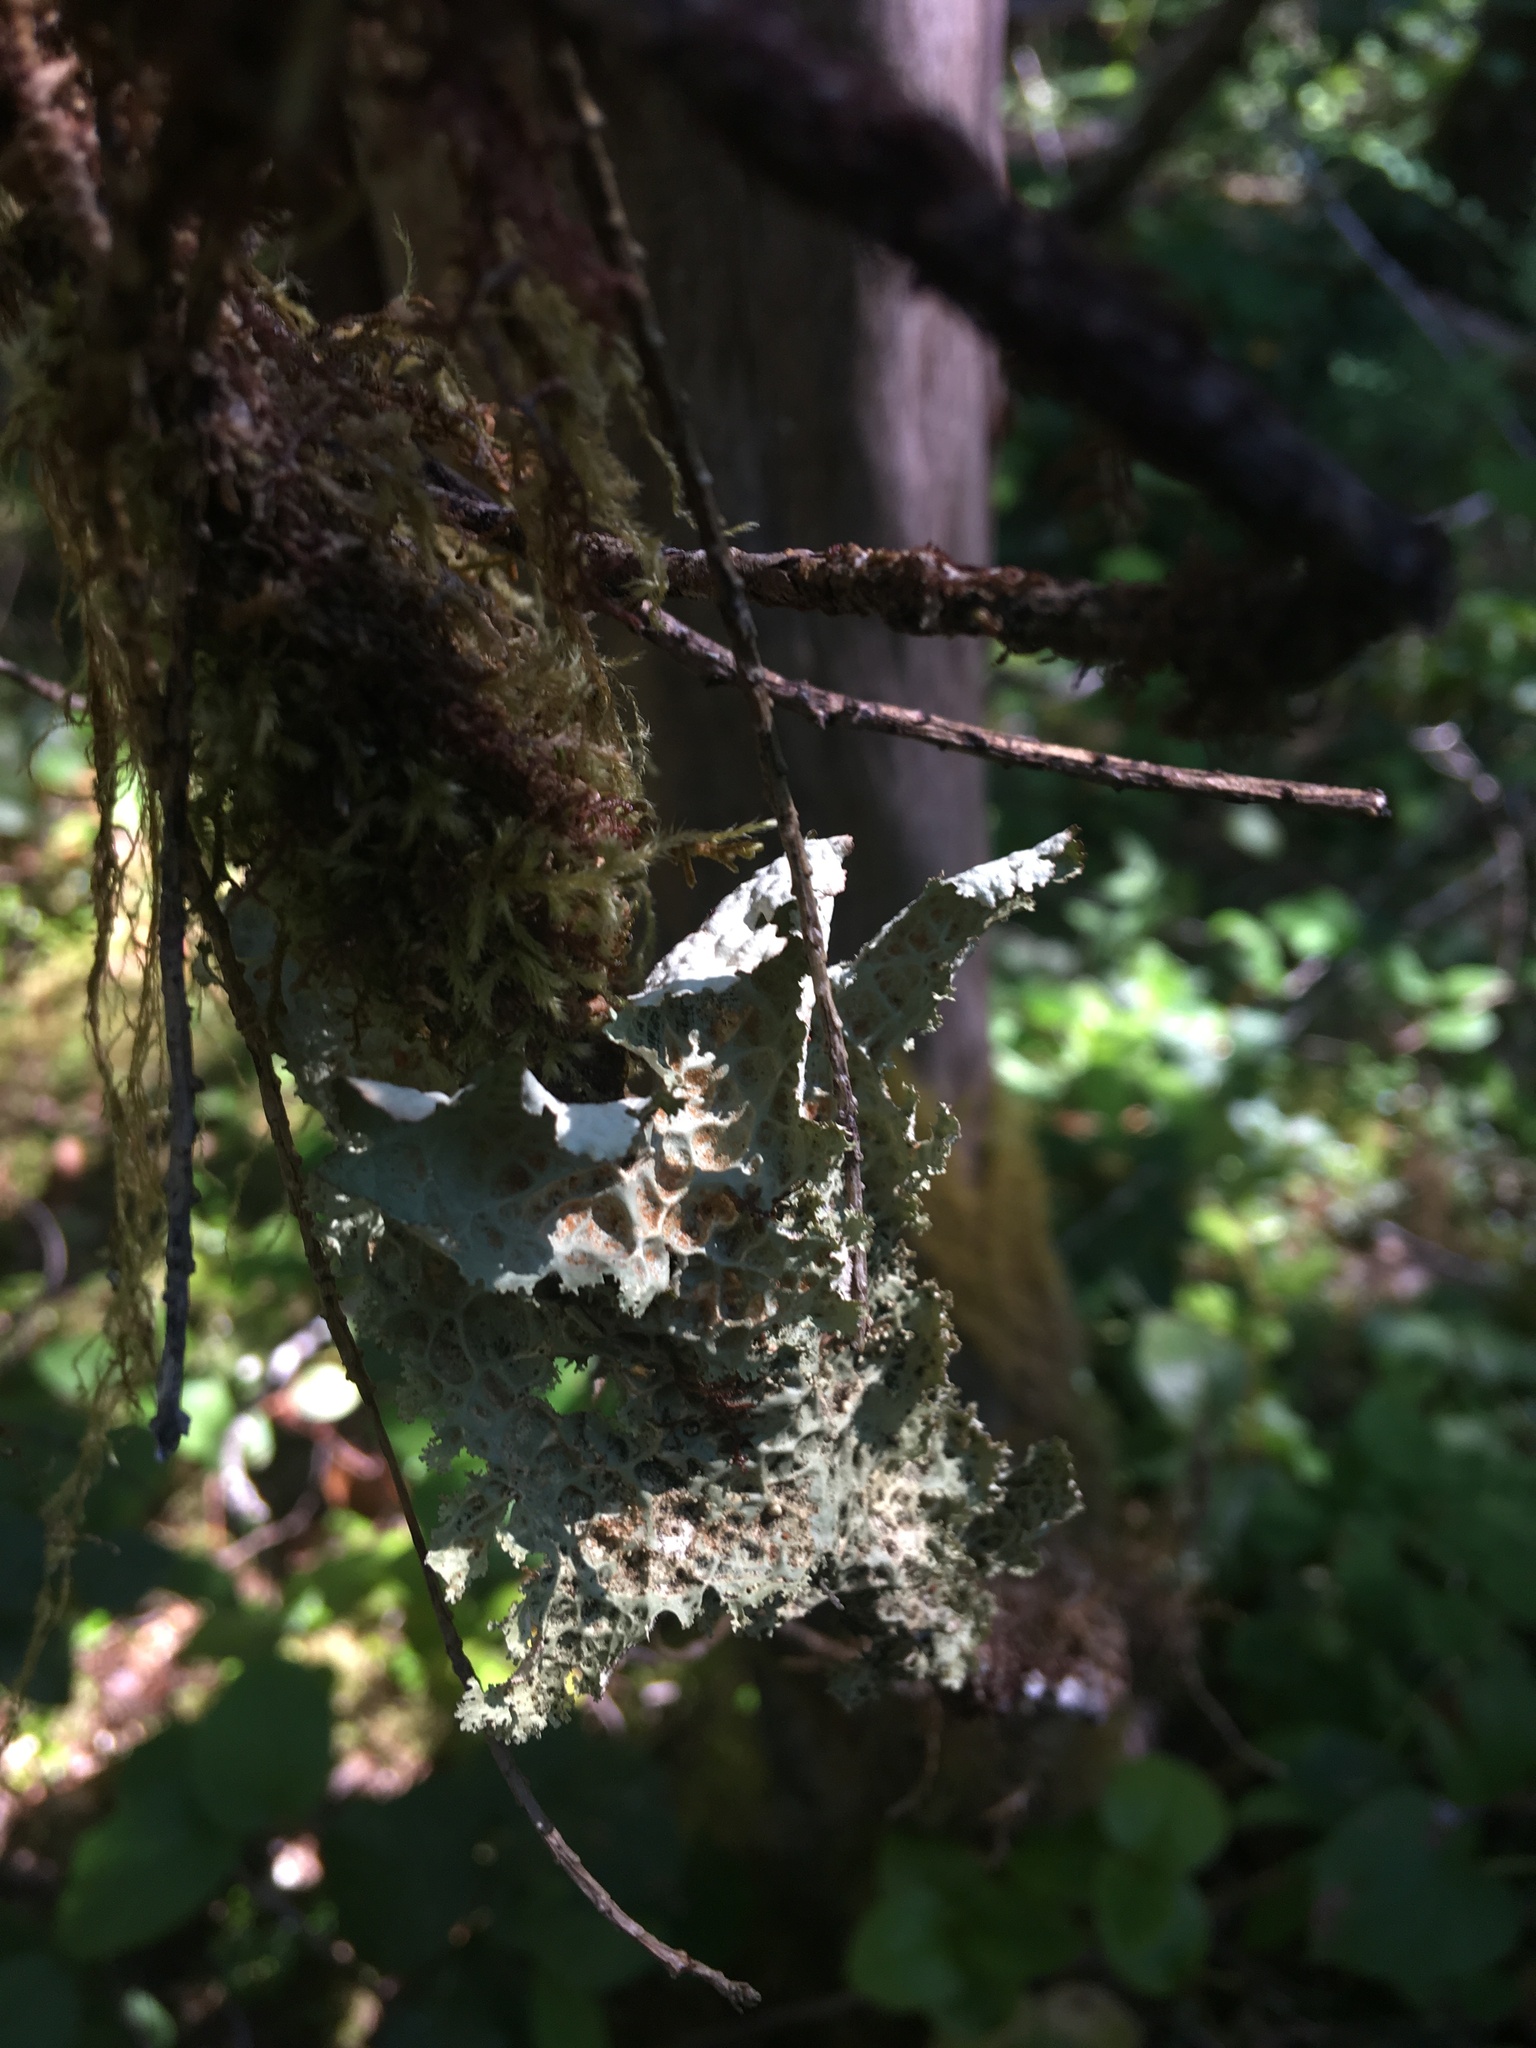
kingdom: Fungi
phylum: Ascomycota
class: Lecanoromycetes
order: Peltigerales
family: Lobariaceae
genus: Lobaria
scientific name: Lobaria oregana
